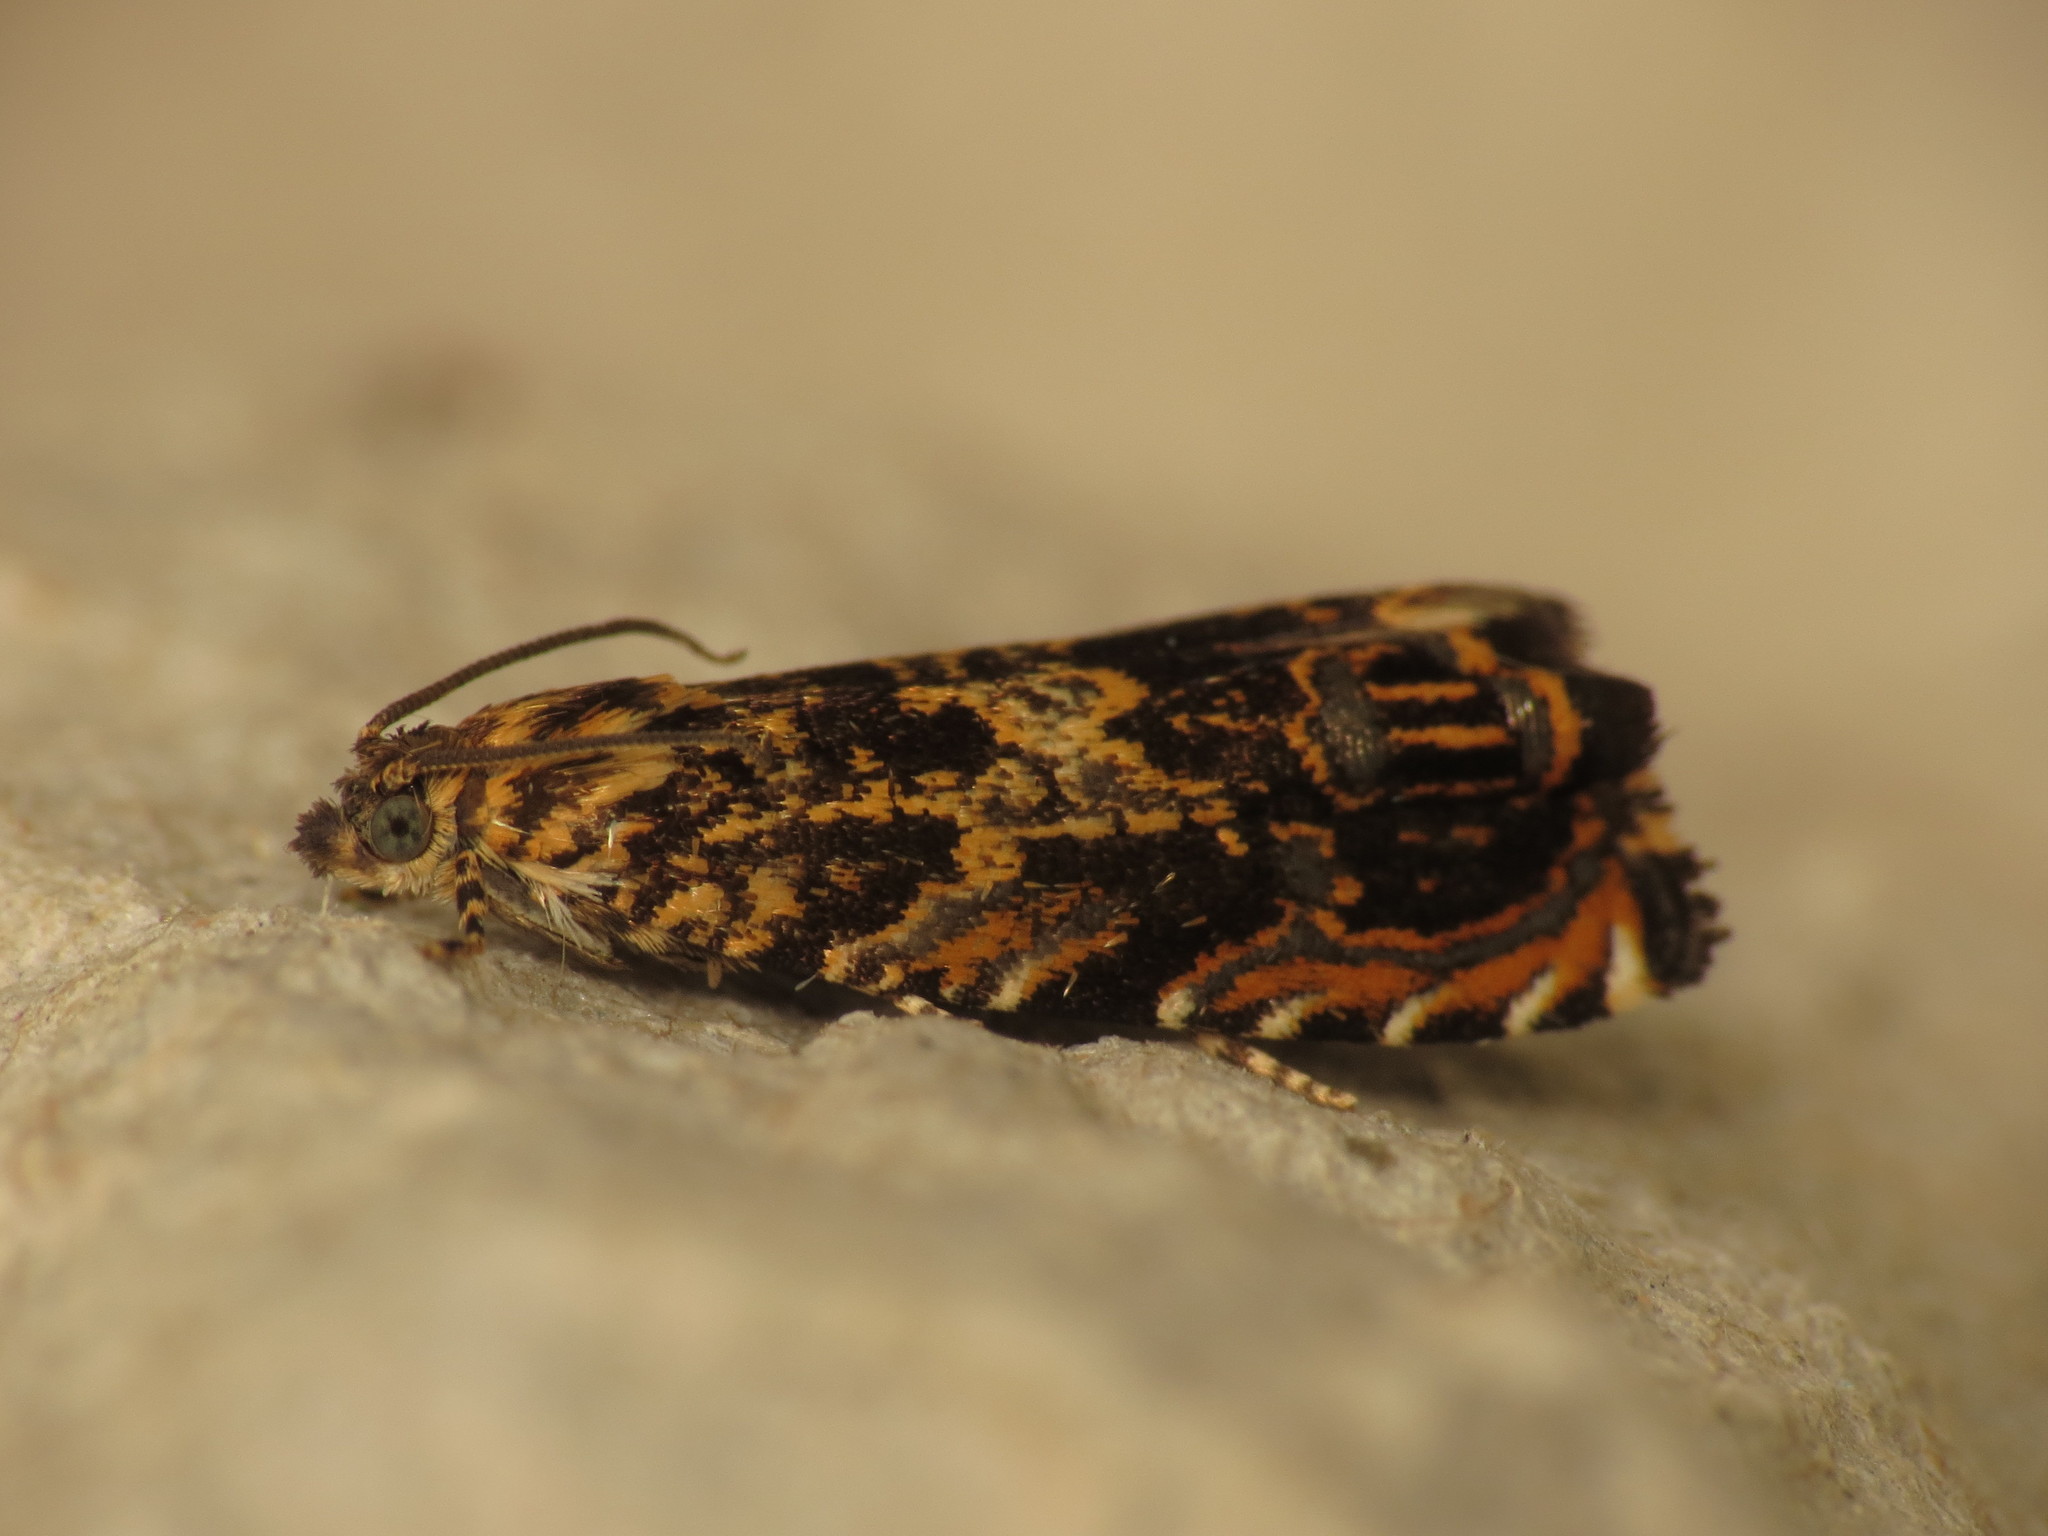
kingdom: Animalia
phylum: Arthropoda
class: Insecta
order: Lepidoptera
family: Tortricidae
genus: Enarmonia
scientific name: Enarmonia formosana
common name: Cherry bark tortrix
